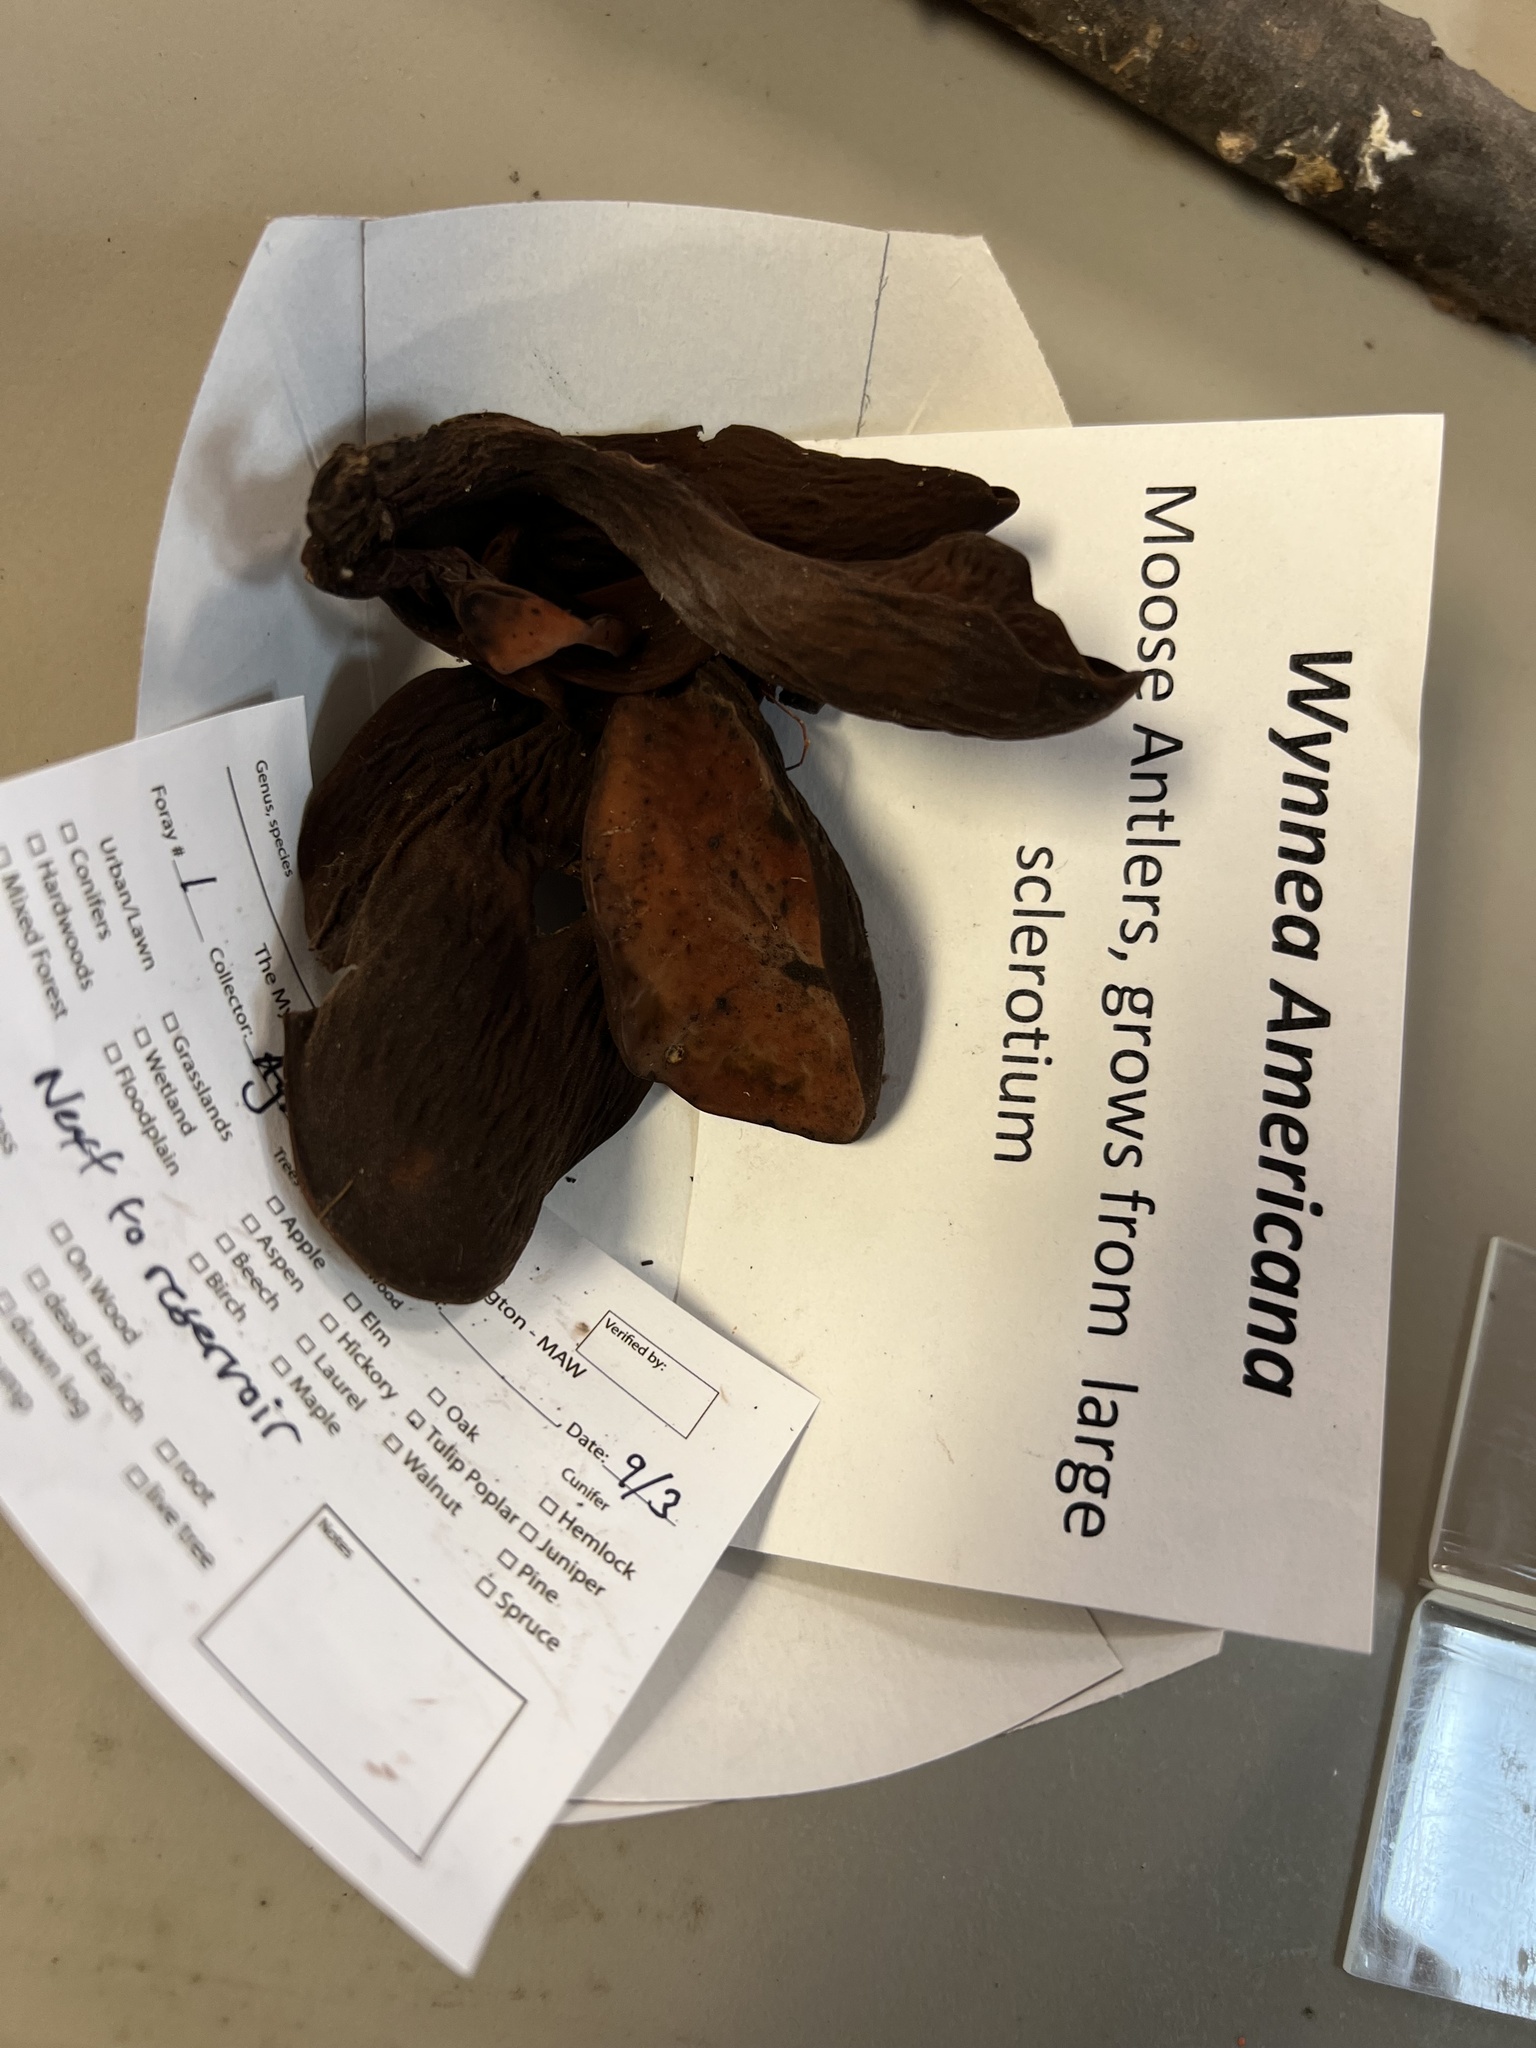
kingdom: Fungi
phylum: Ascomycota
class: Pezizomycetes
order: Pezizales
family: Wynneaceae
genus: Wynnea
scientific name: Wynnea americana
